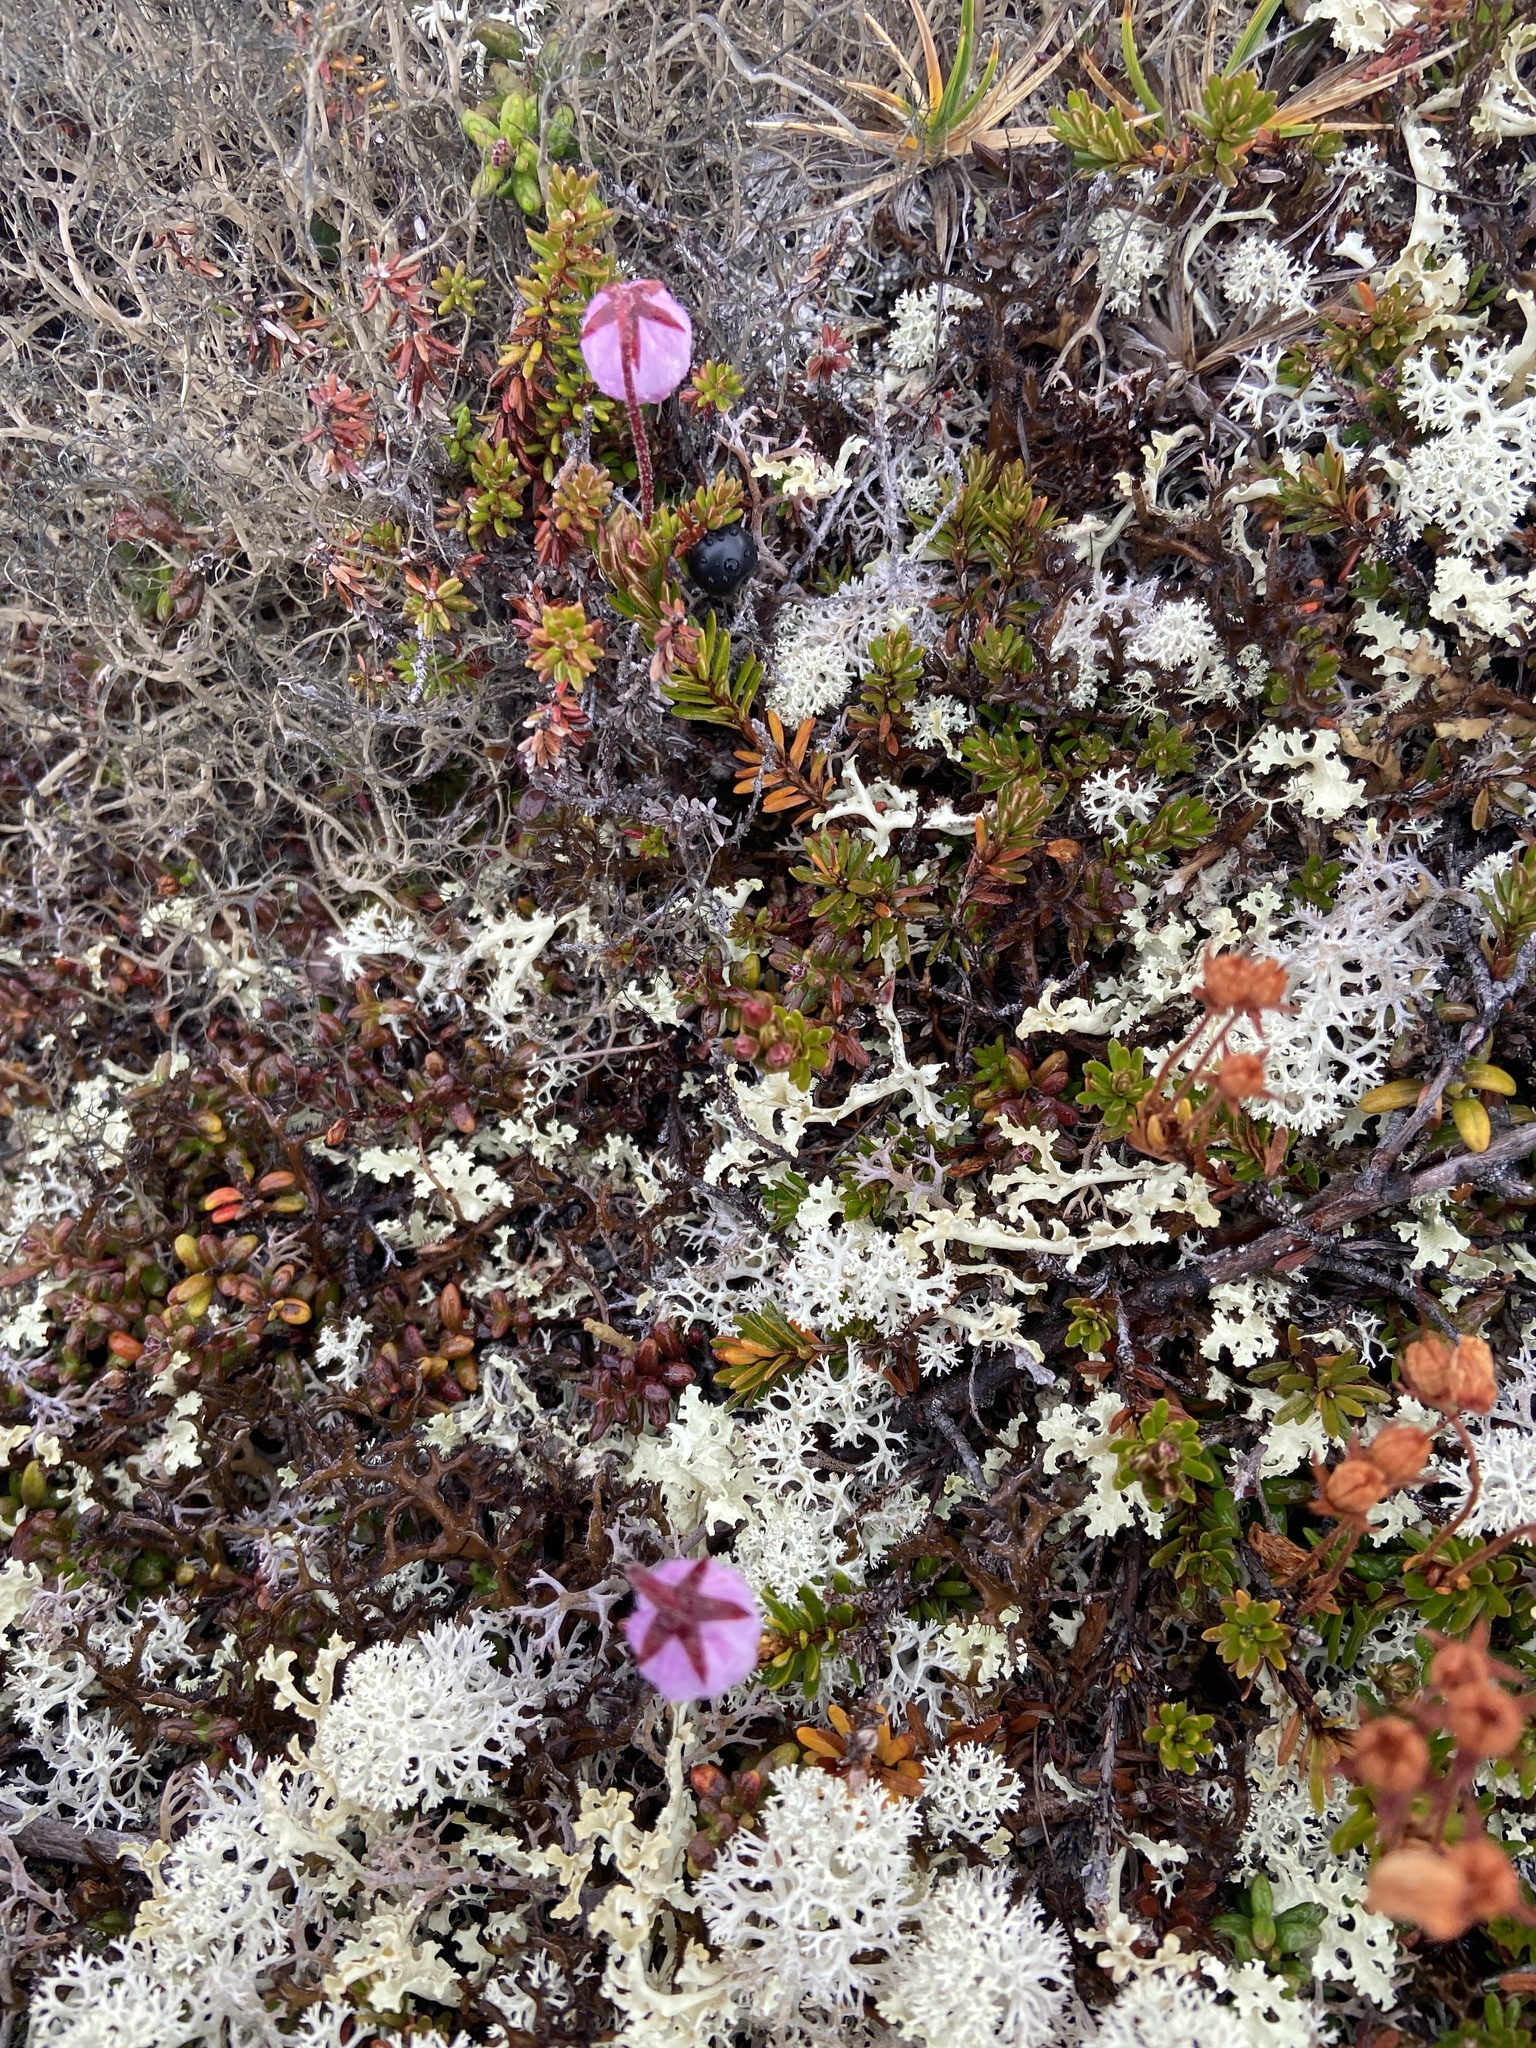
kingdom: Plantae
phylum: Tracheophyta
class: Magnoliopsida
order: Ericales
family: Ericaceae
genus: Phyllodoce
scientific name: Phyllodoce caerulea
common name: Blue heath
